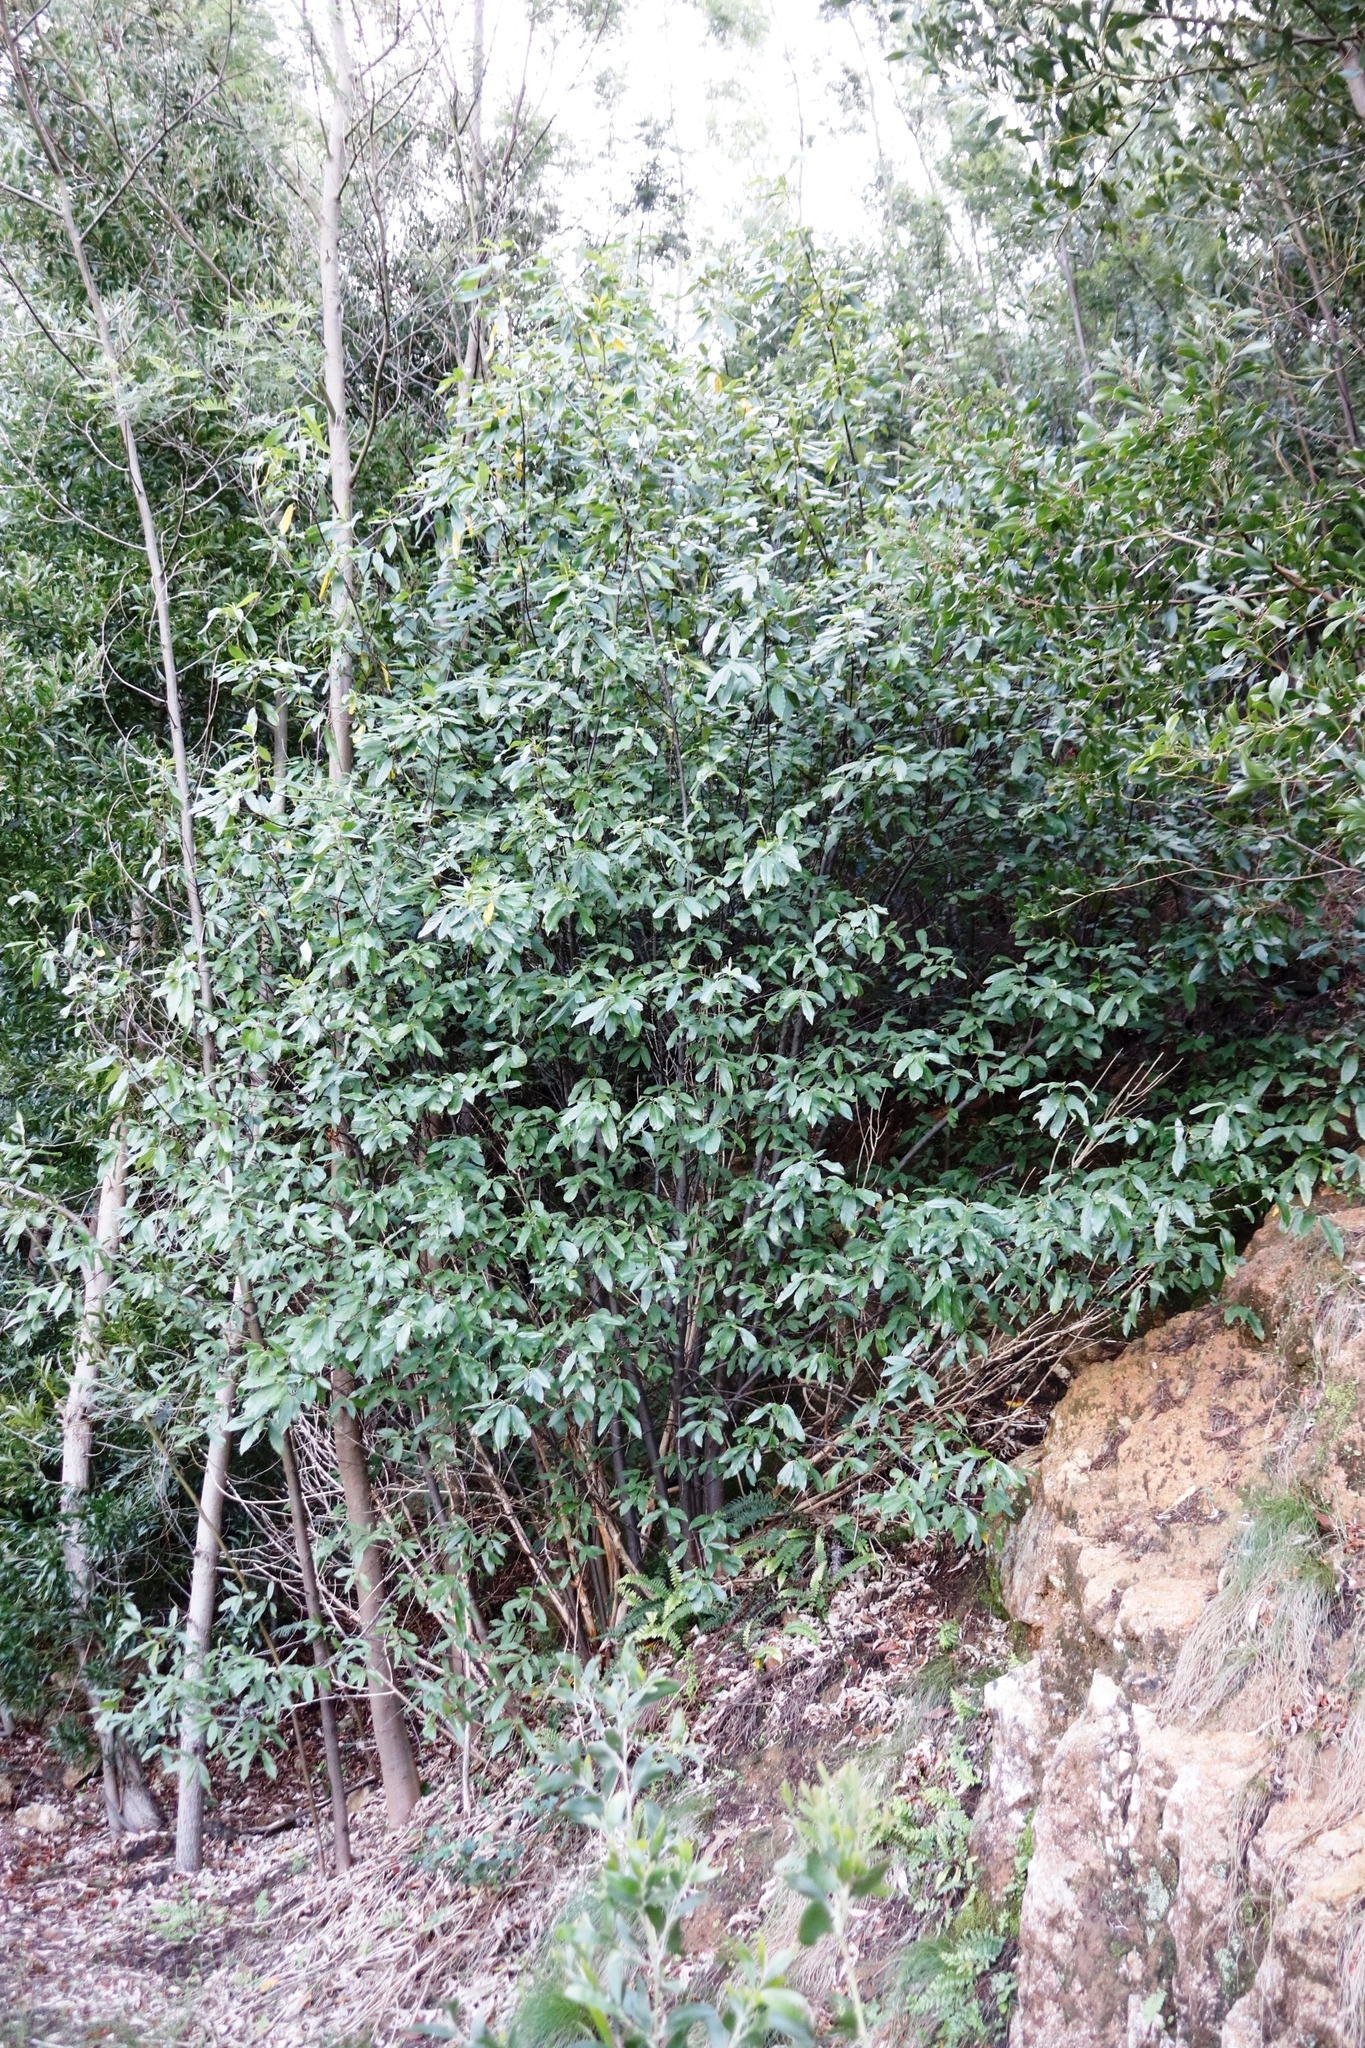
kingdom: Plantae
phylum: Tracheophyta
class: Magnoliopsida
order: Malpighiales
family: Achariaceae
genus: Kiggelaria
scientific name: Kiggelaria africana
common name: Wild peach
